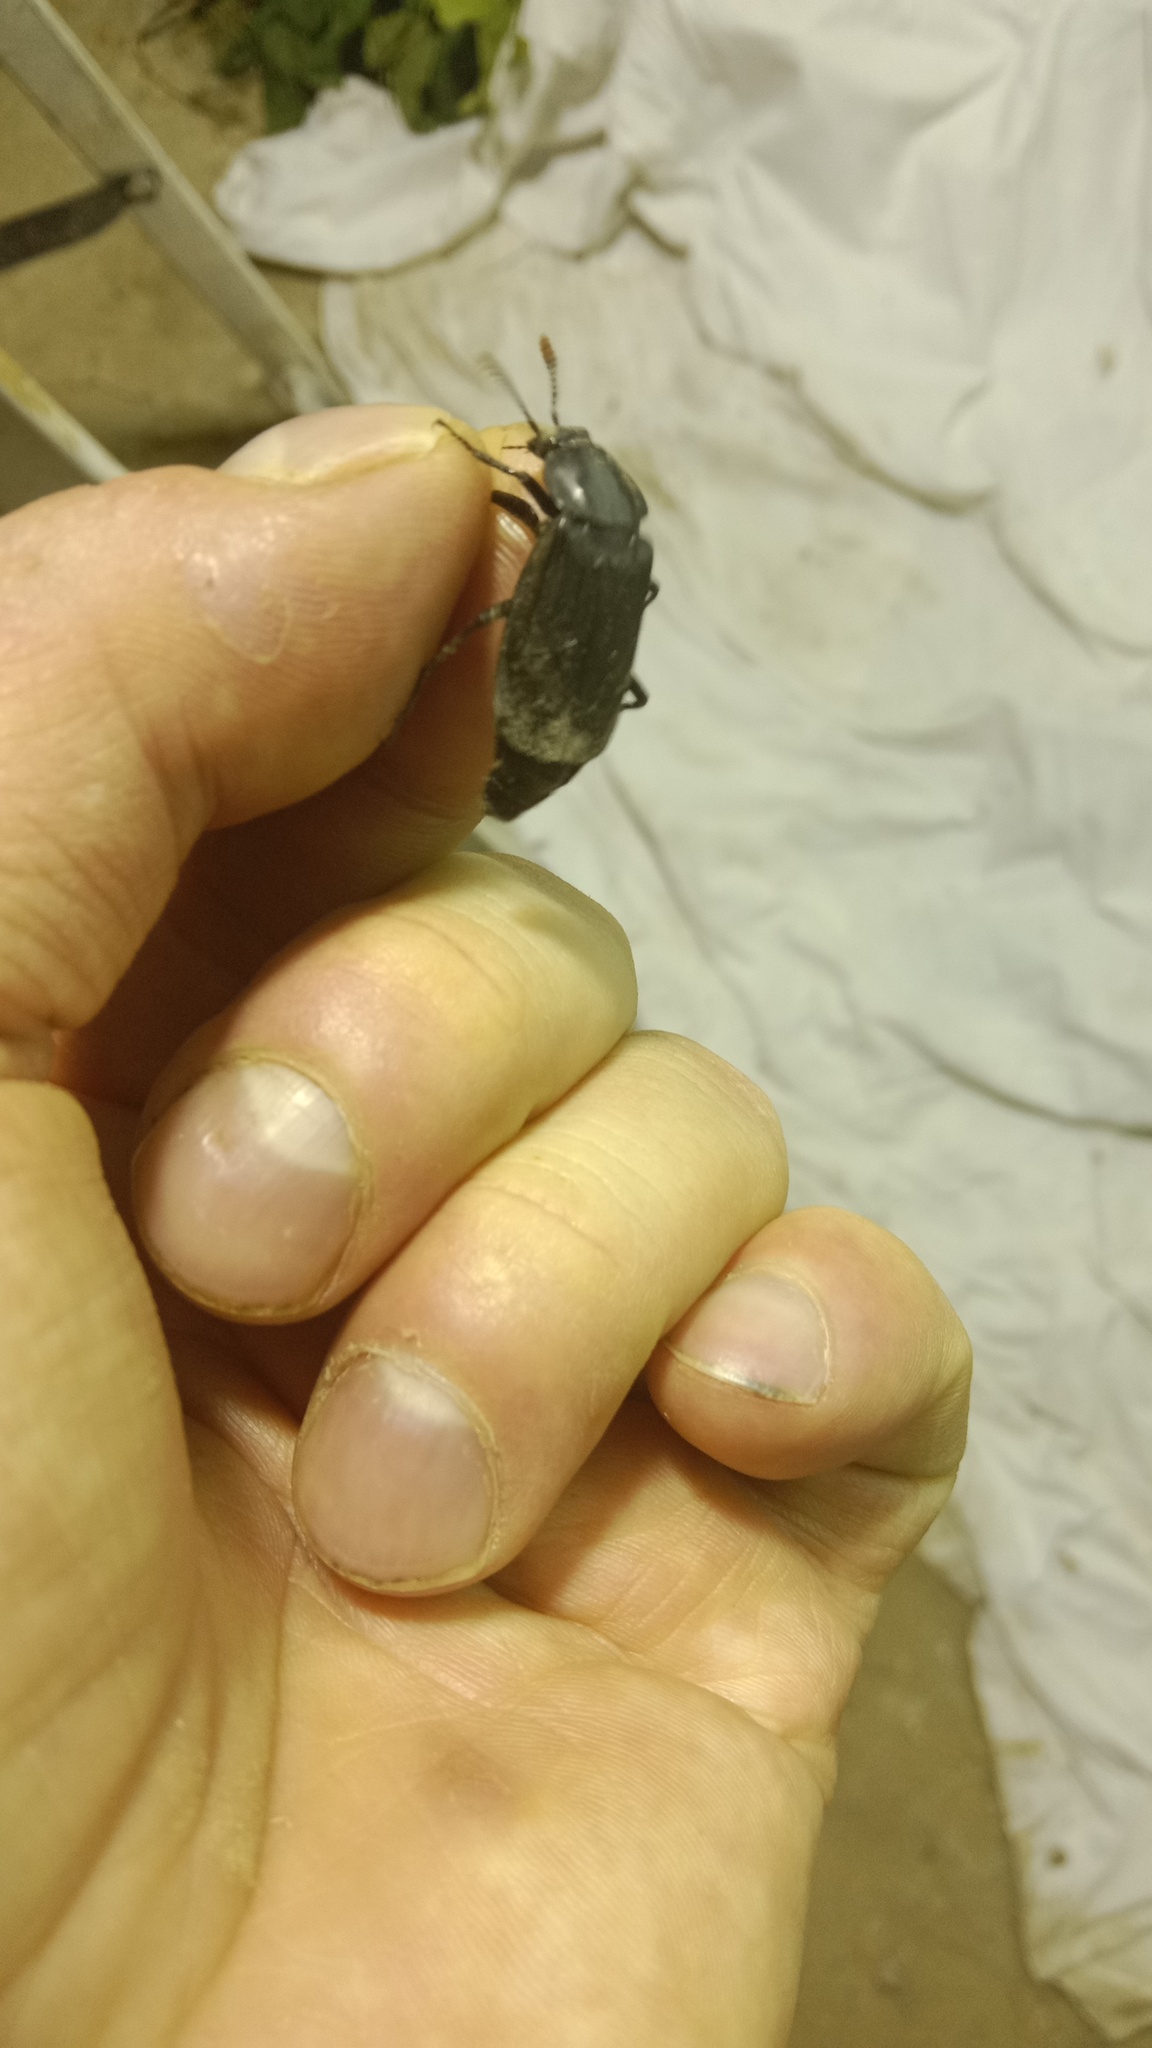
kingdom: Animalia
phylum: Arthropoda
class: Insecta
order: Coleoptera
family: Staphylinidae
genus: Necrodes
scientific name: Necrodes littoralis
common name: Shore sexton beetle
